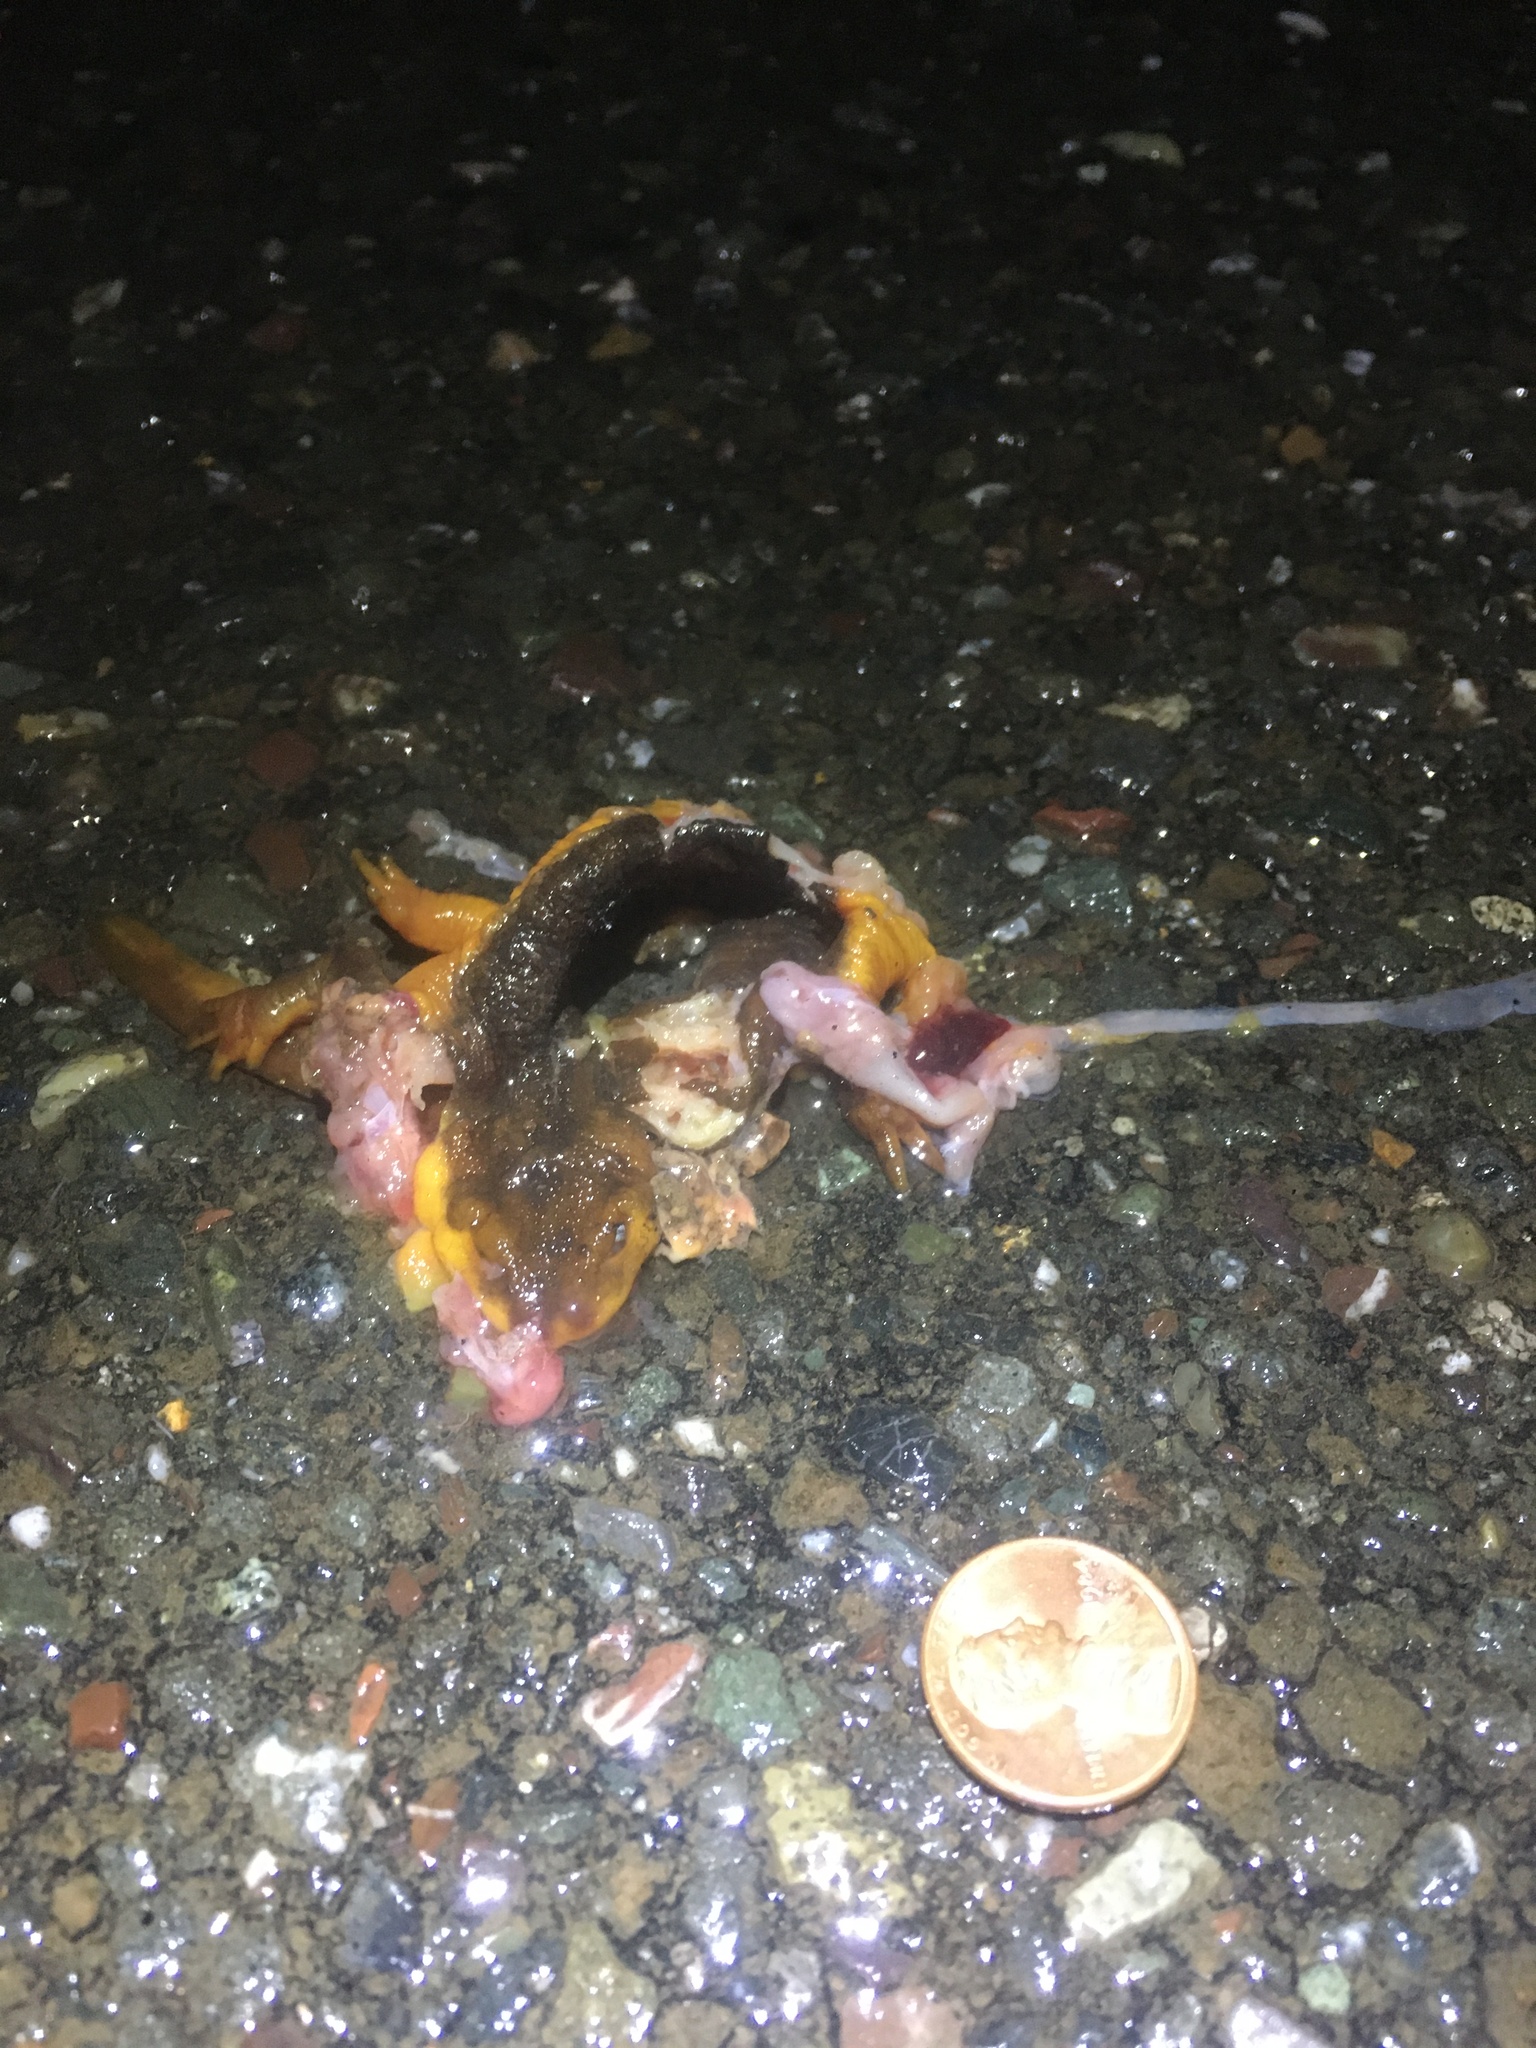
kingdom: Animalia
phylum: Chordata
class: Amphibia
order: Caudata
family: Salamandridae
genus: Taricha
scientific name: Taricha
